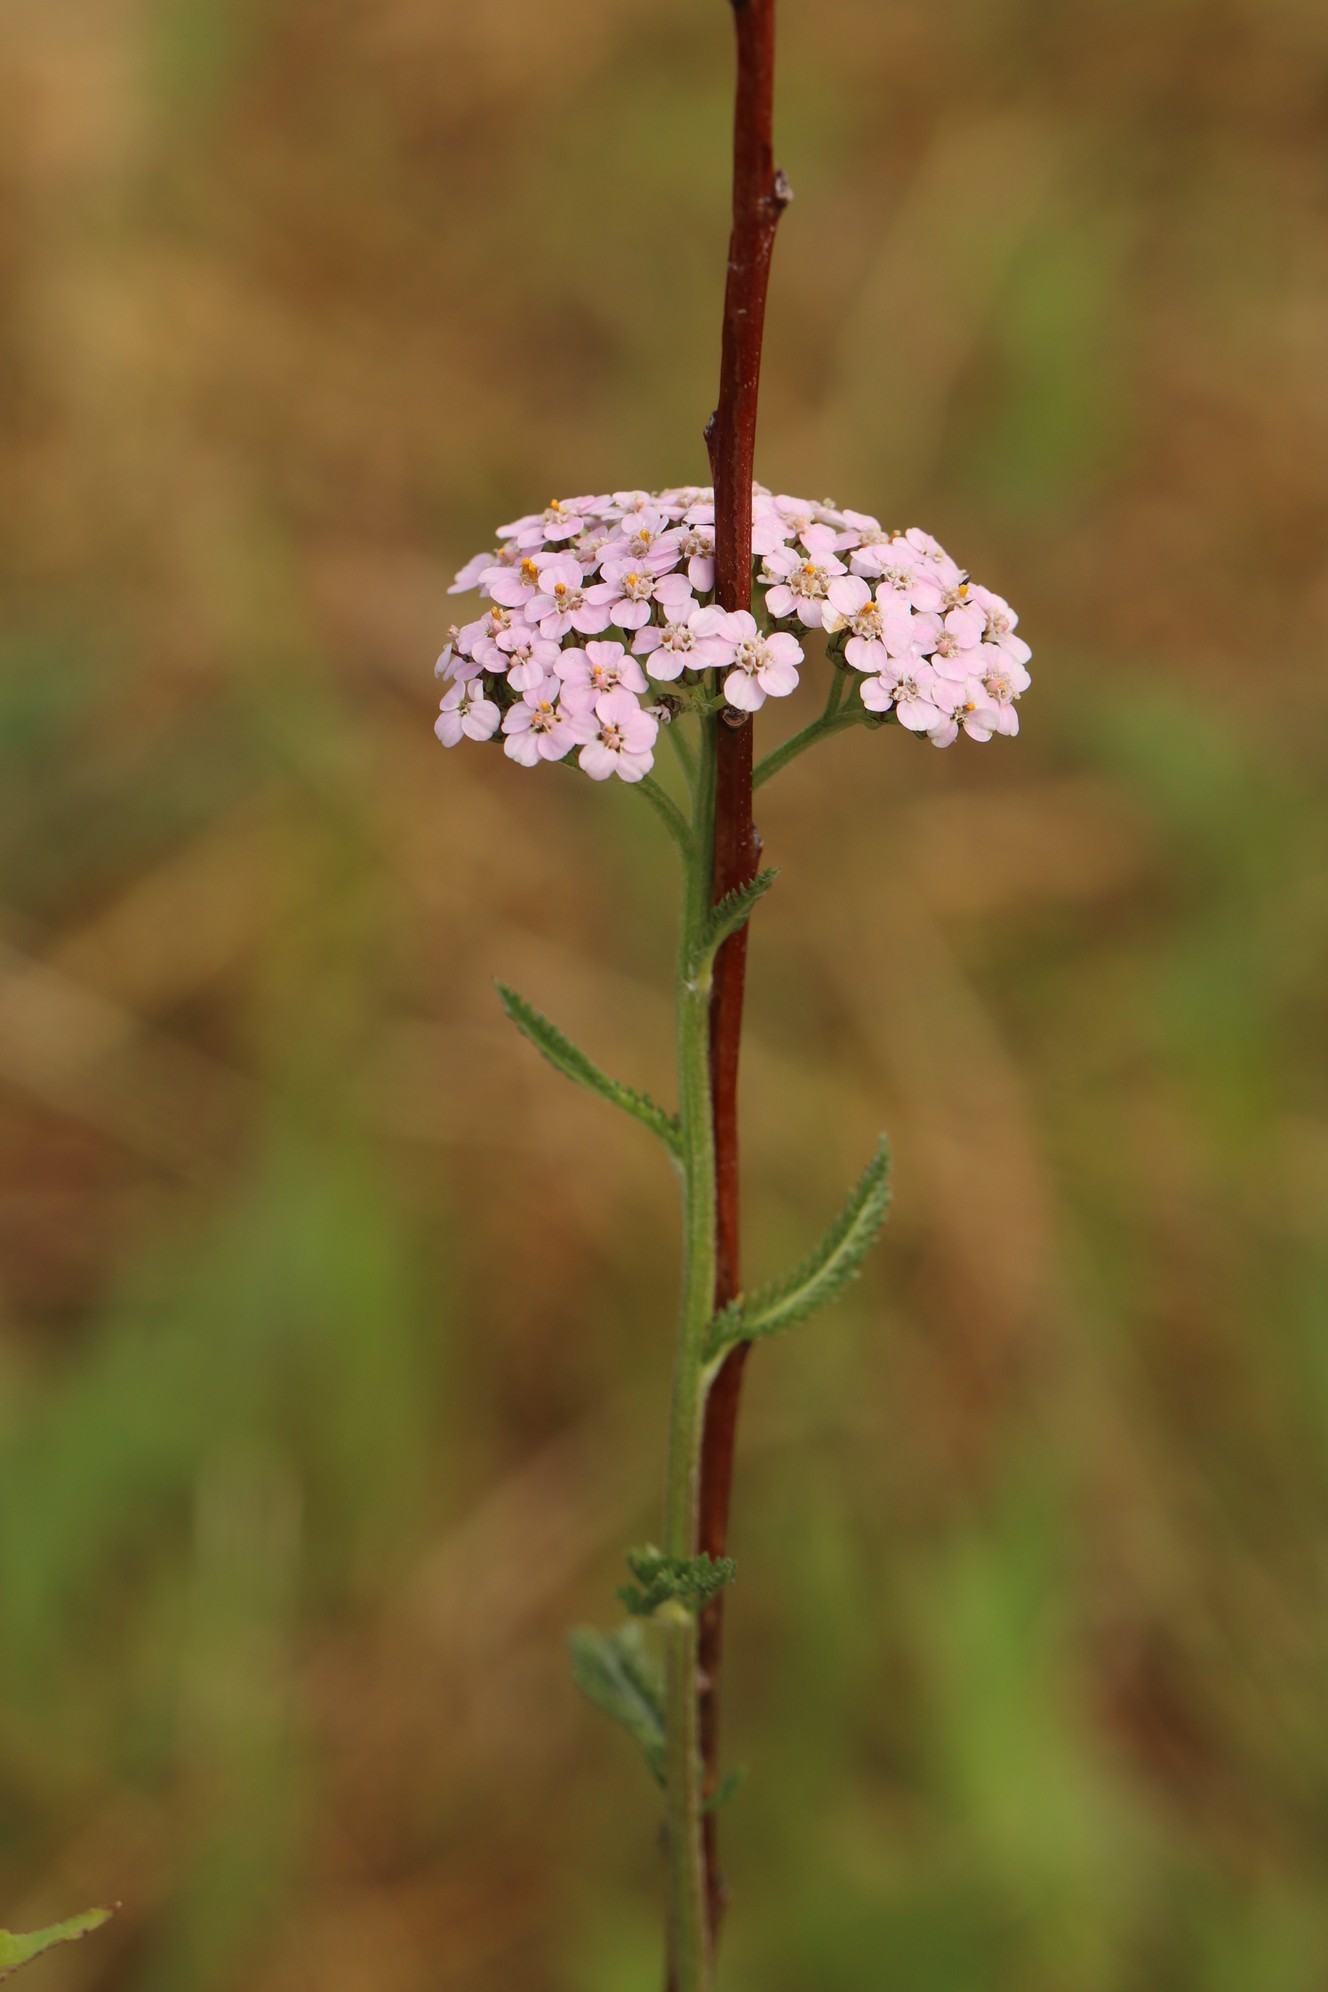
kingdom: Plantae
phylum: Tracheophyta
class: Magnoliopsida
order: Asterales
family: Asteraceae
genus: Achillea
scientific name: Achillea asiatica
